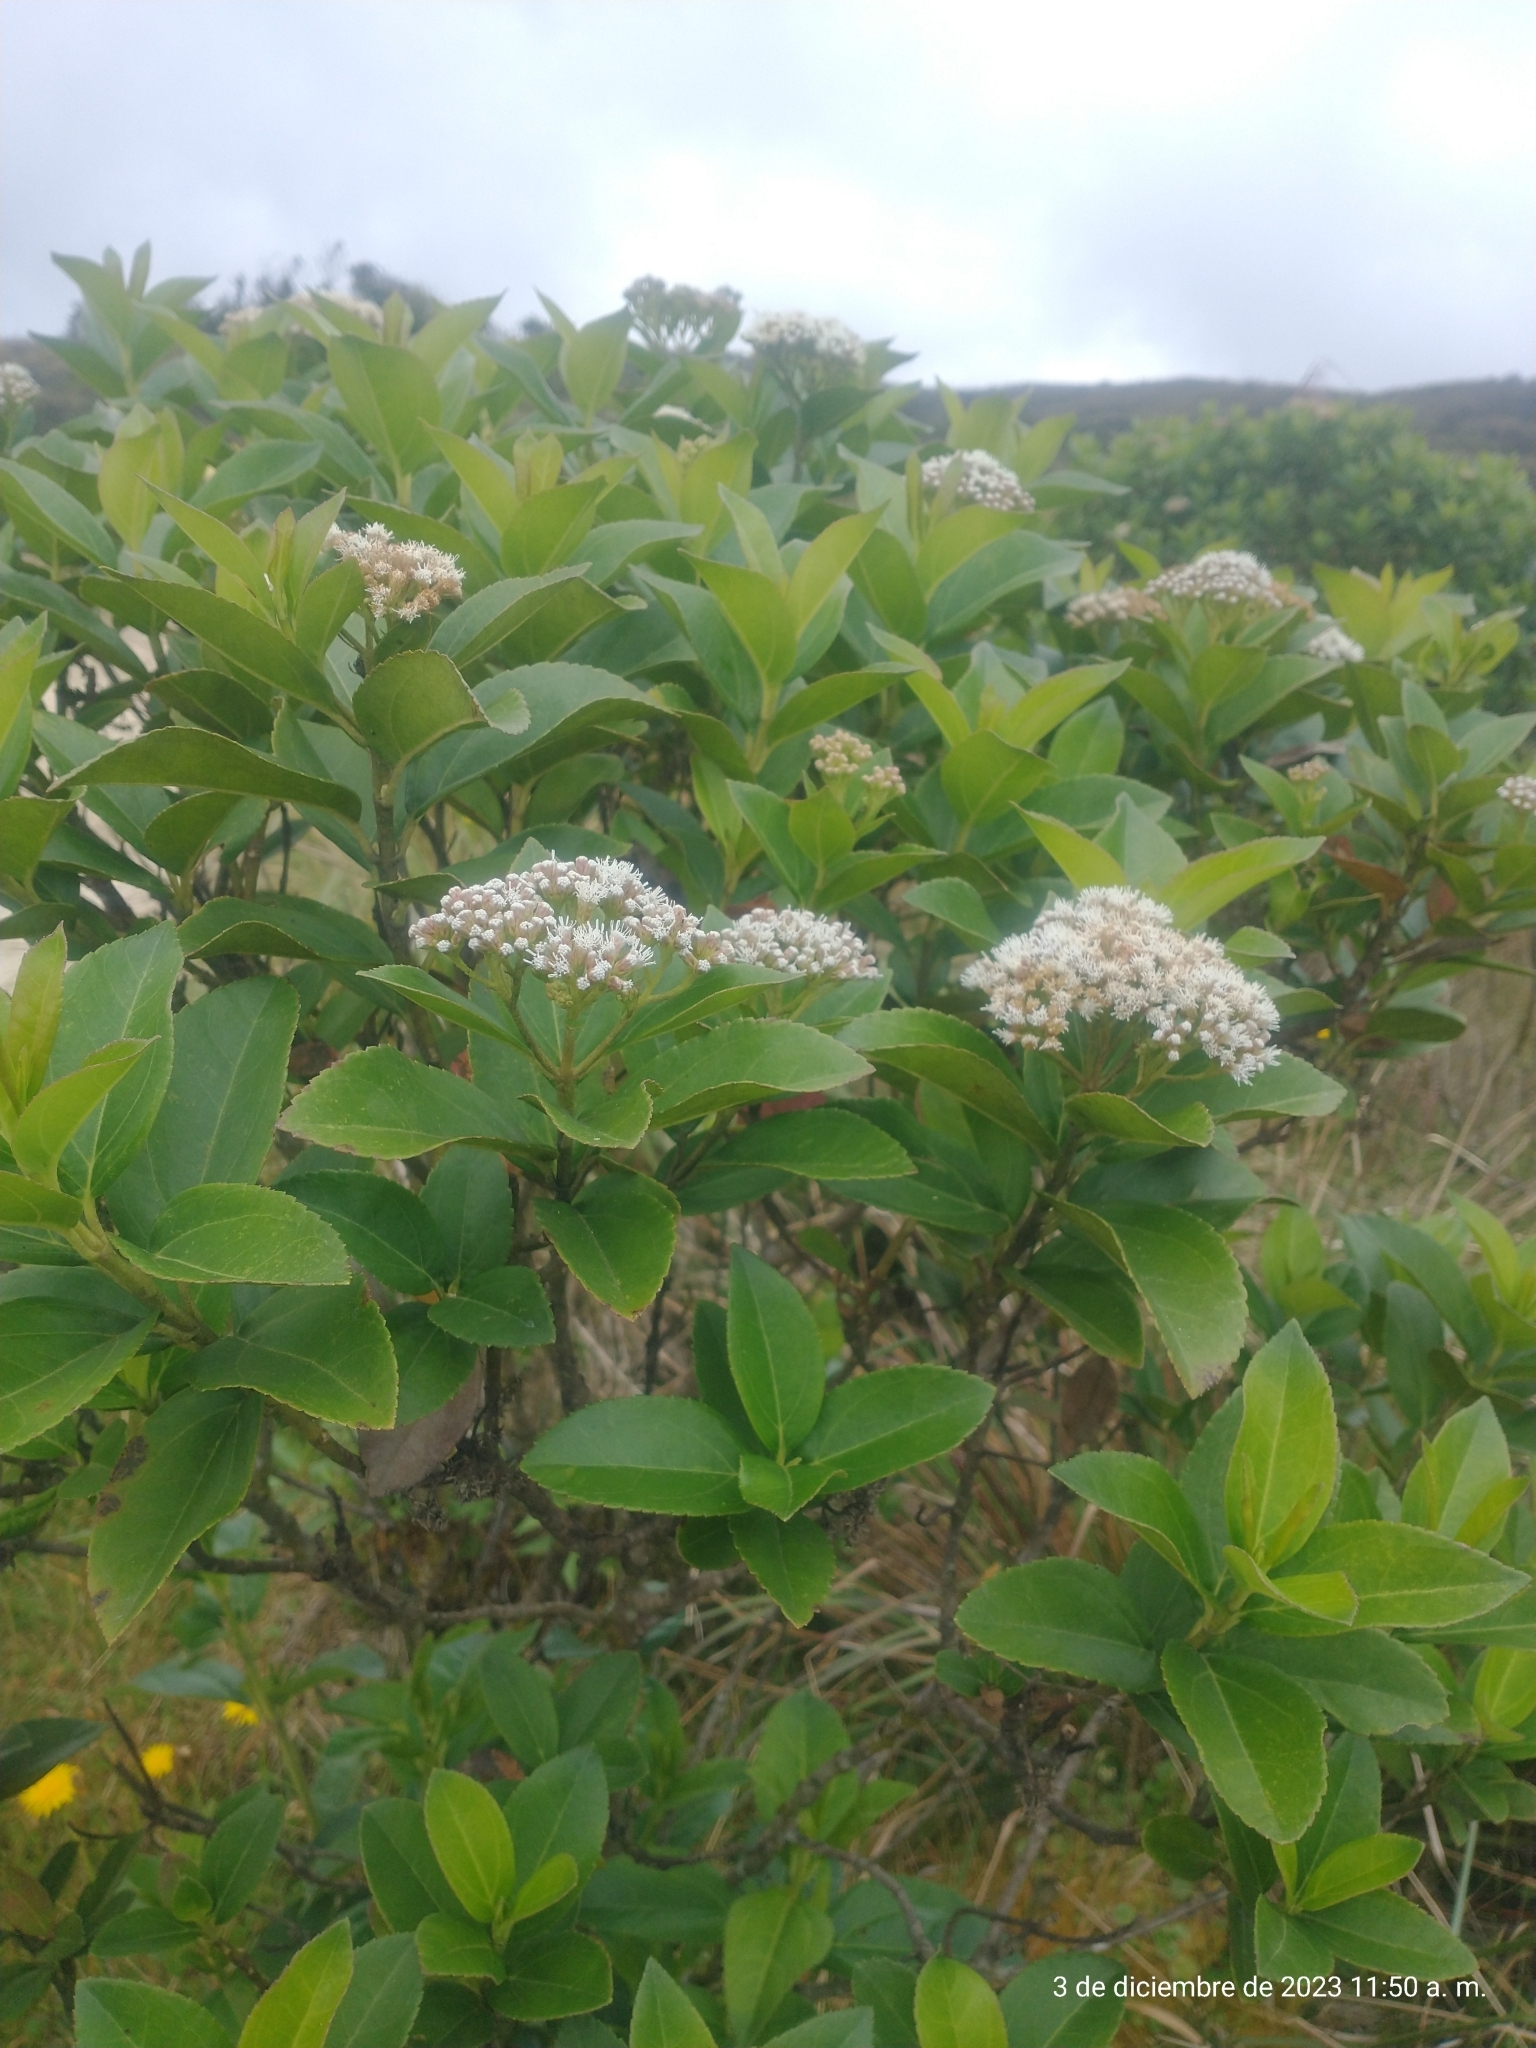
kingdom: Plantae
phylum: Tracheophyta
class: Magnoliopsida
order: Asterales
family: Asteraceae
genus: Ageratina
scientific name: Ageratina tinifolia
